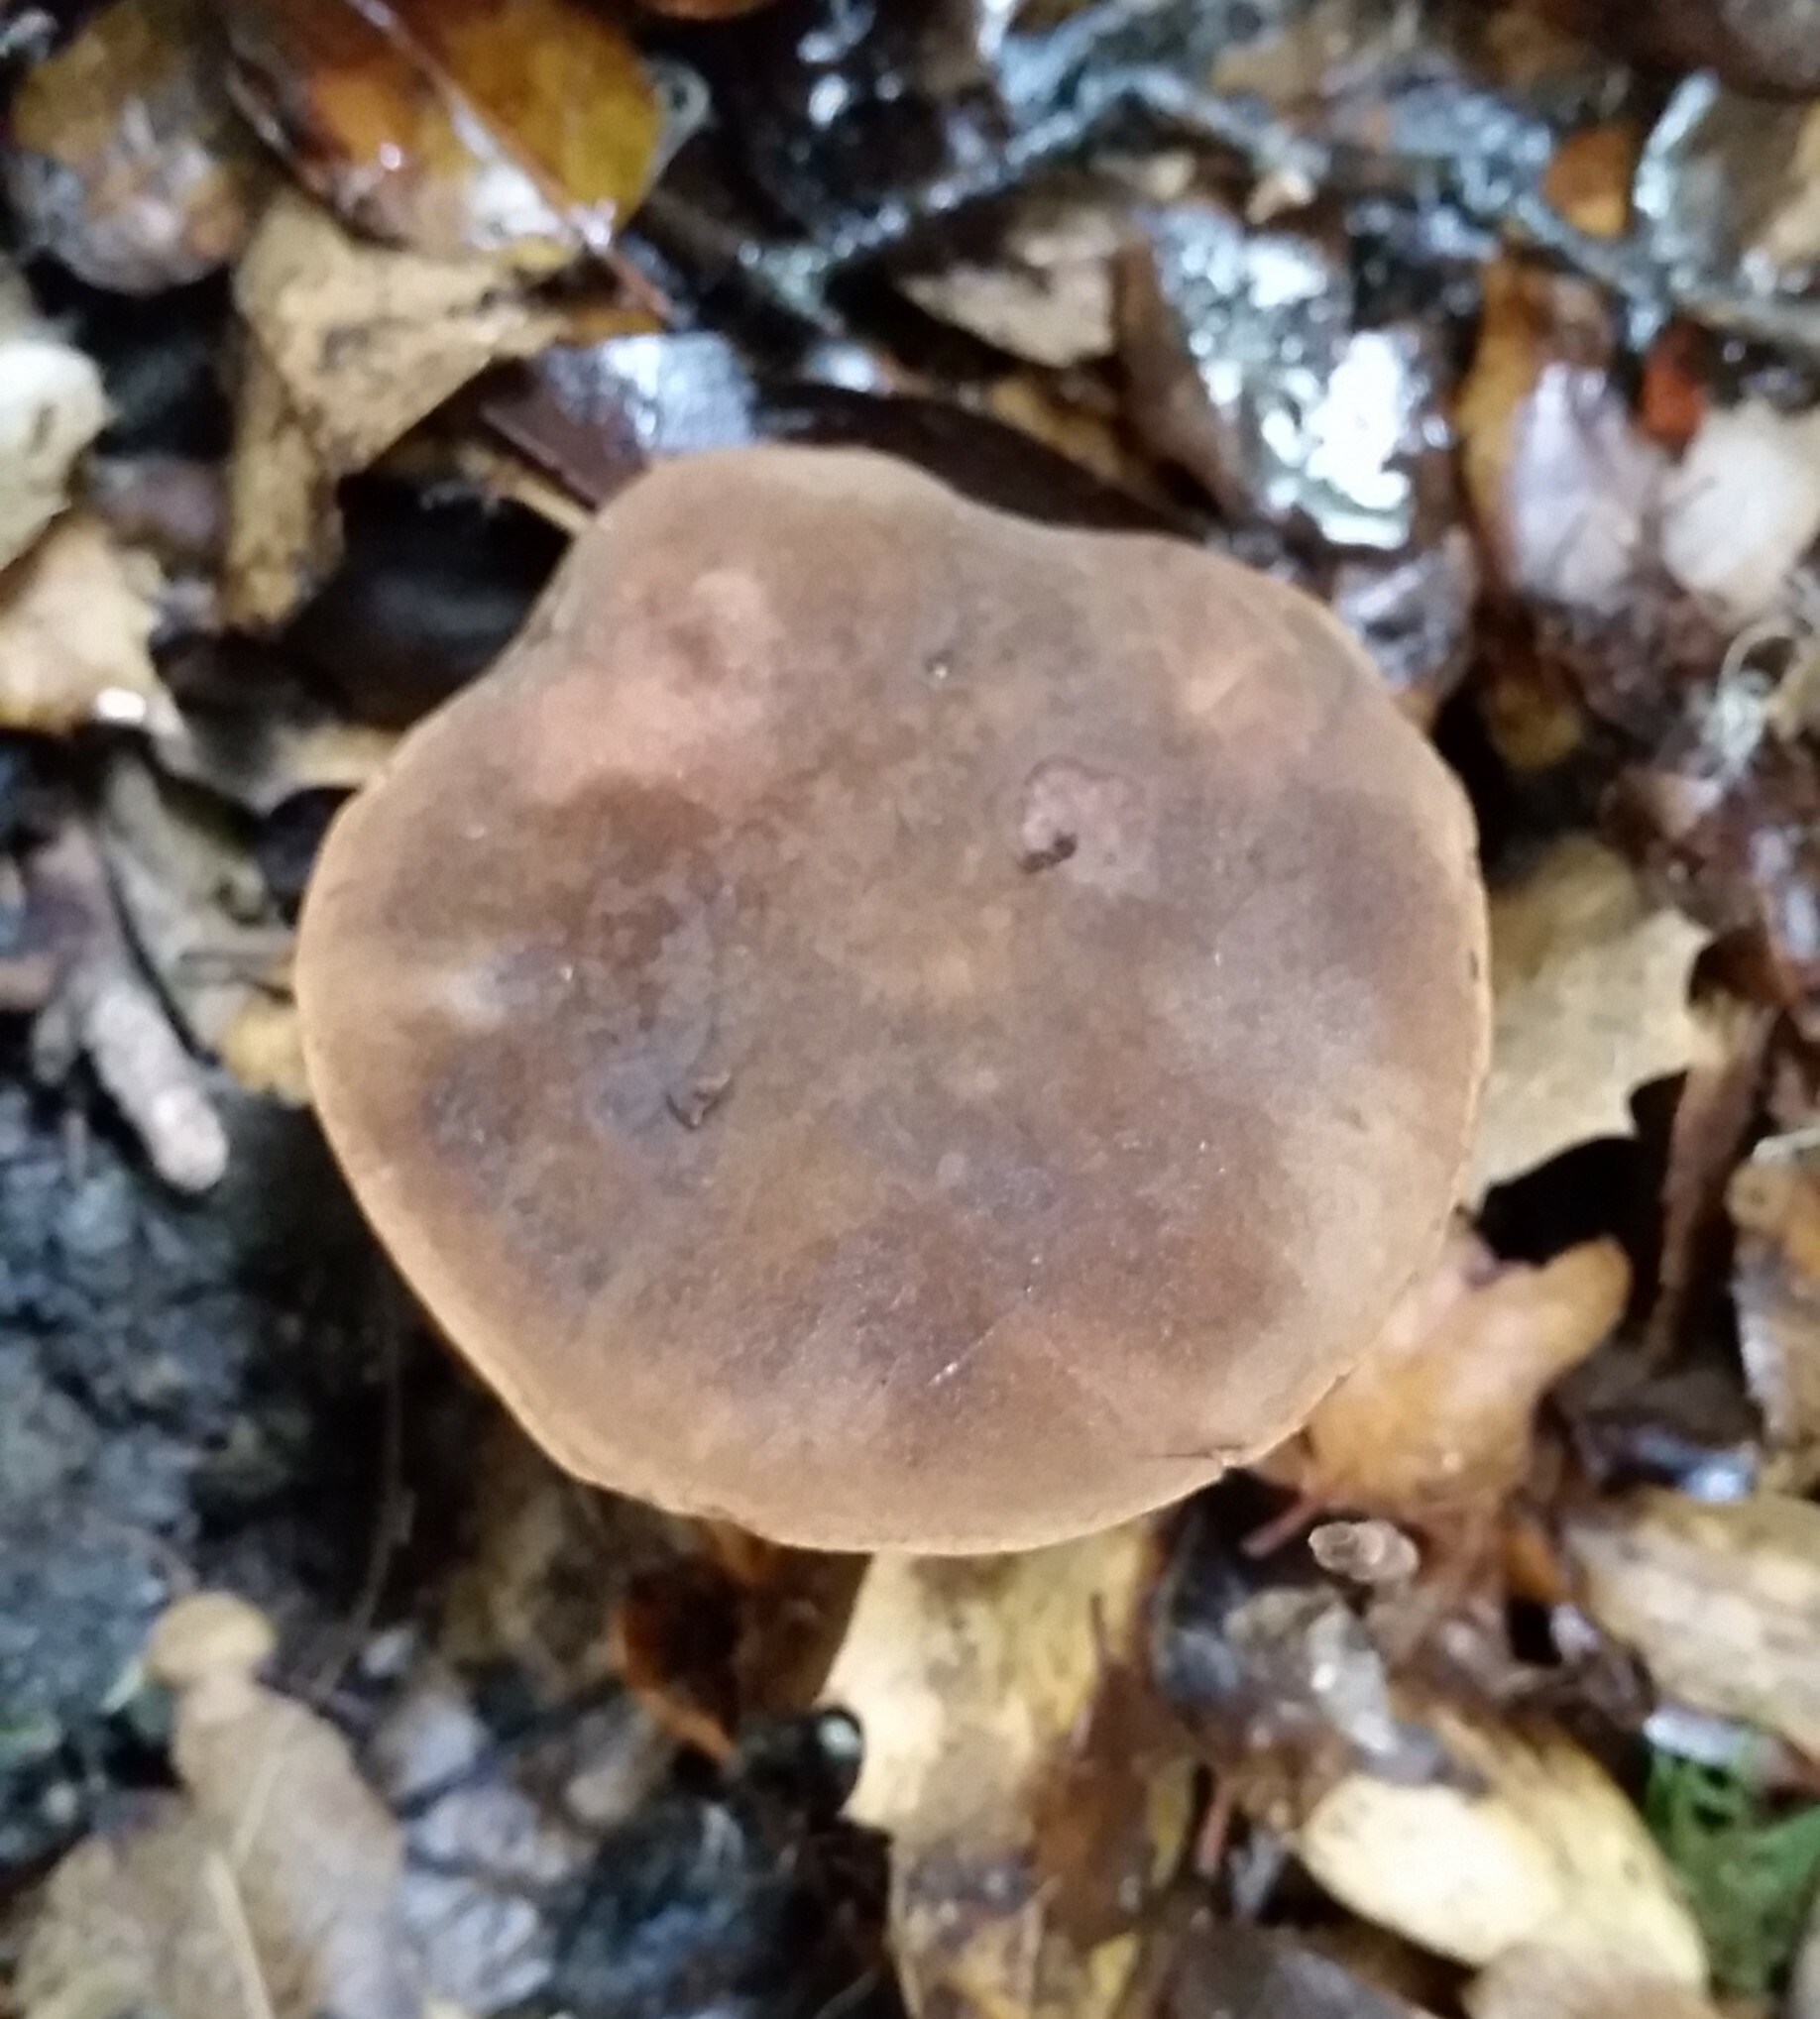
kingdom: Fungi
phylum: Basidiomycota
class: Agaricomycetes
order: Boletales
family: Boletaceae
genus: Xerocomus
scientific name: Xerocomus subtomentosus
